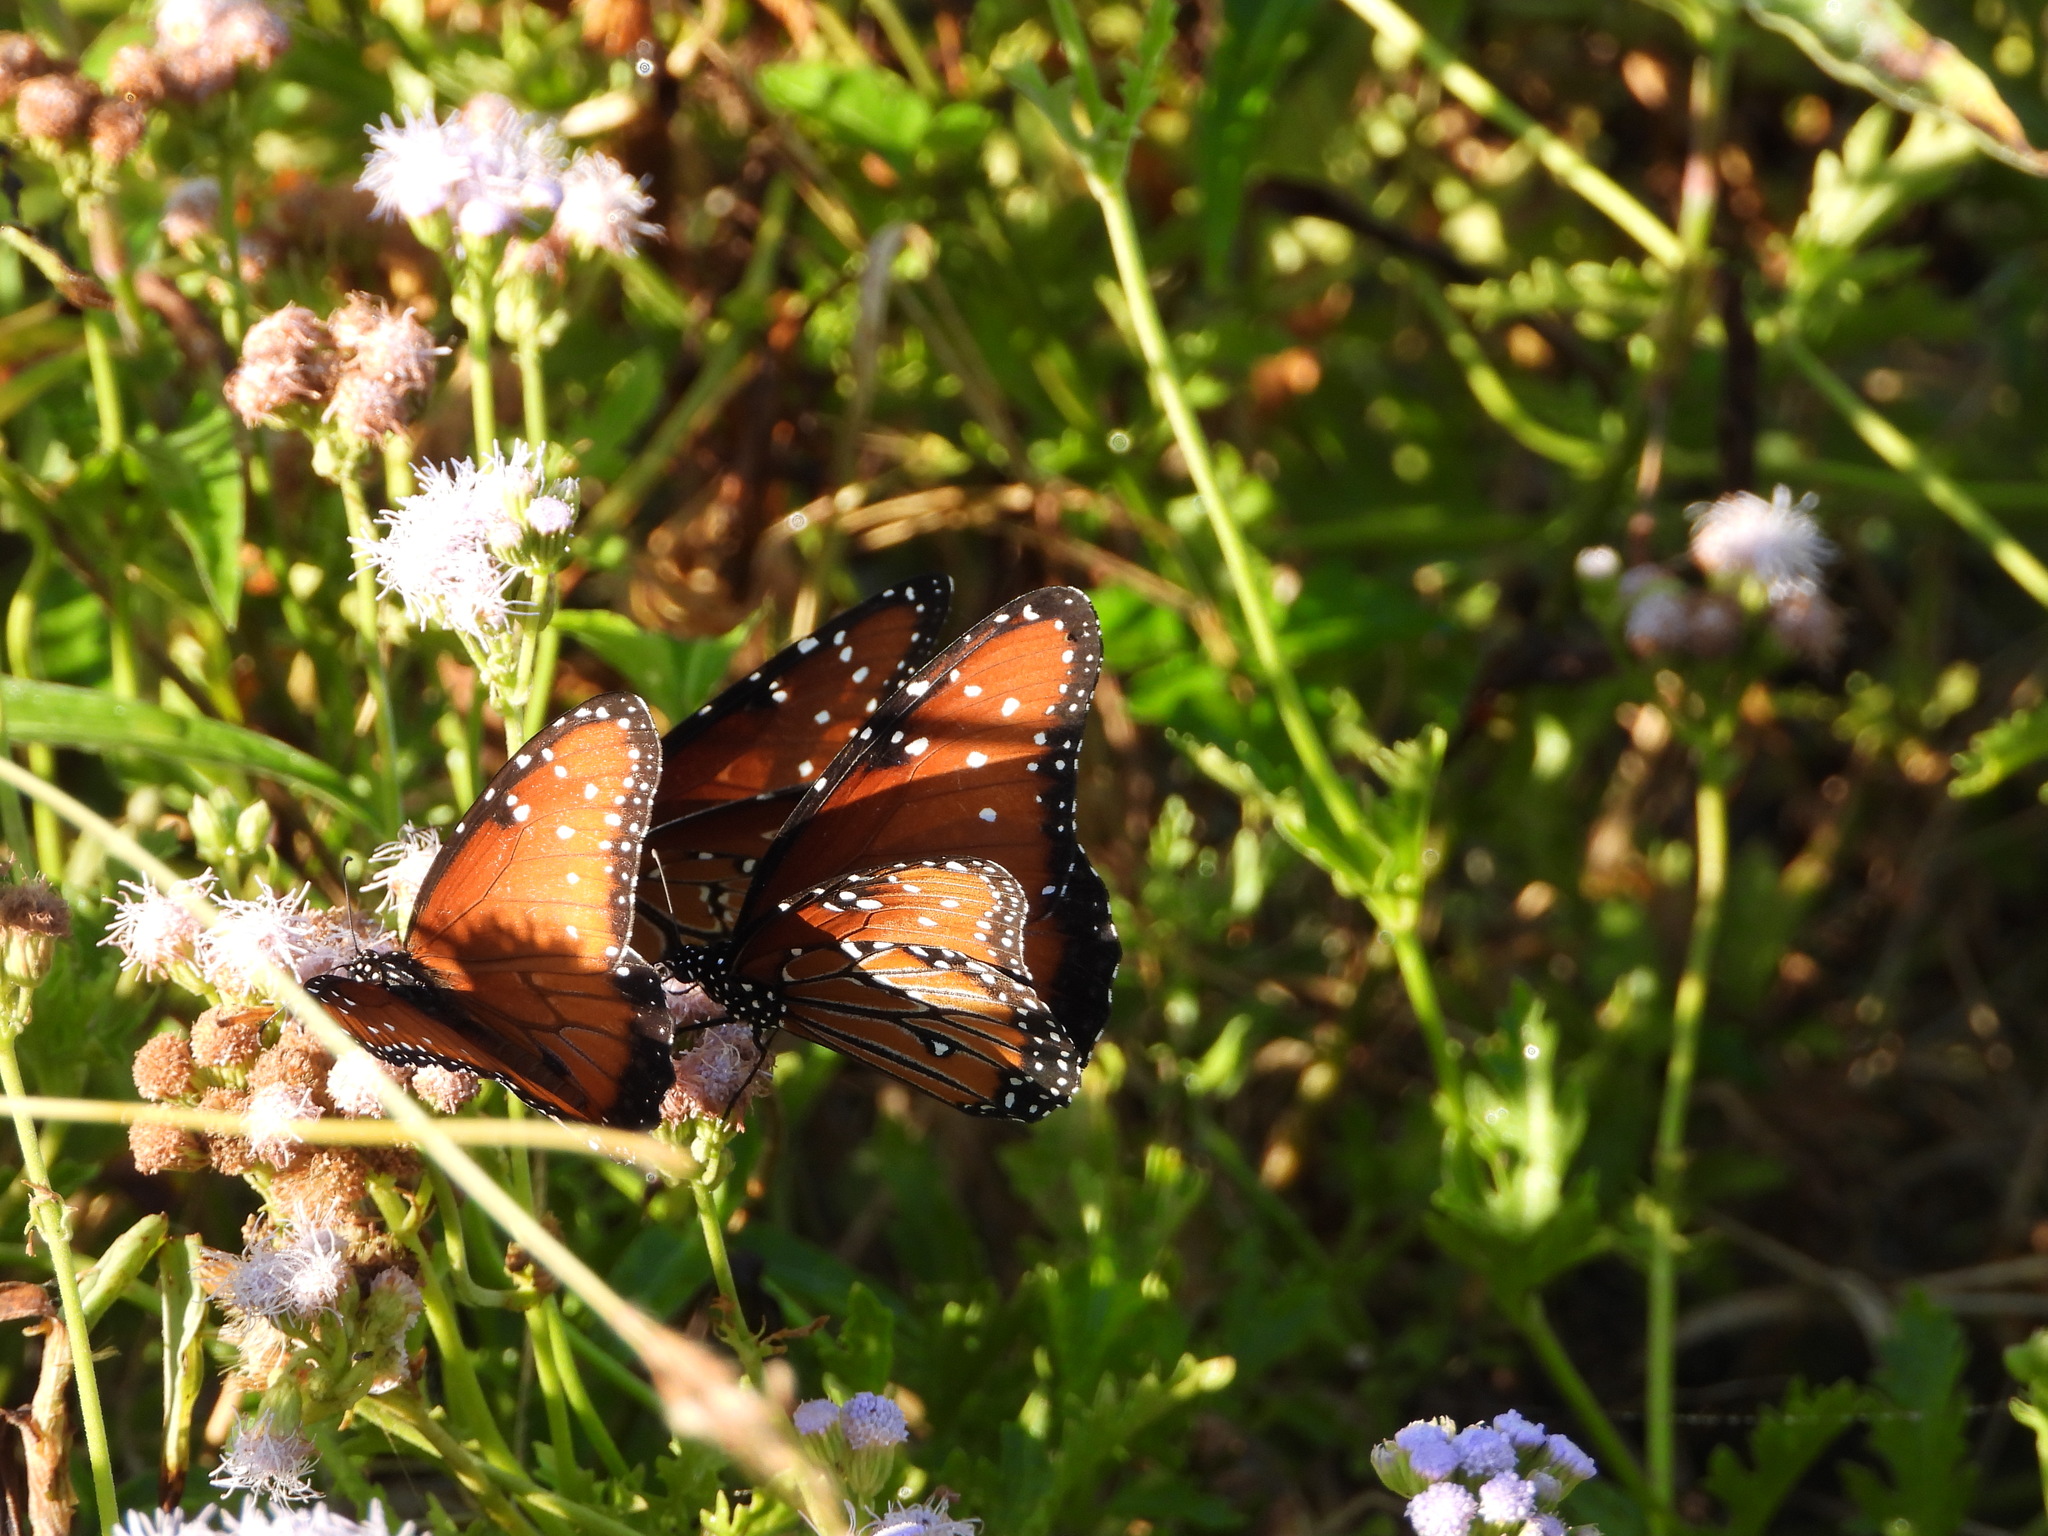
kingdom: Animalia
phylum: Arthropoda
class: Insecta
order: Lepidoptera
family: Nymphalidae
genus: Danaus
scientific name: Danaus gilippus
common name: Queen
